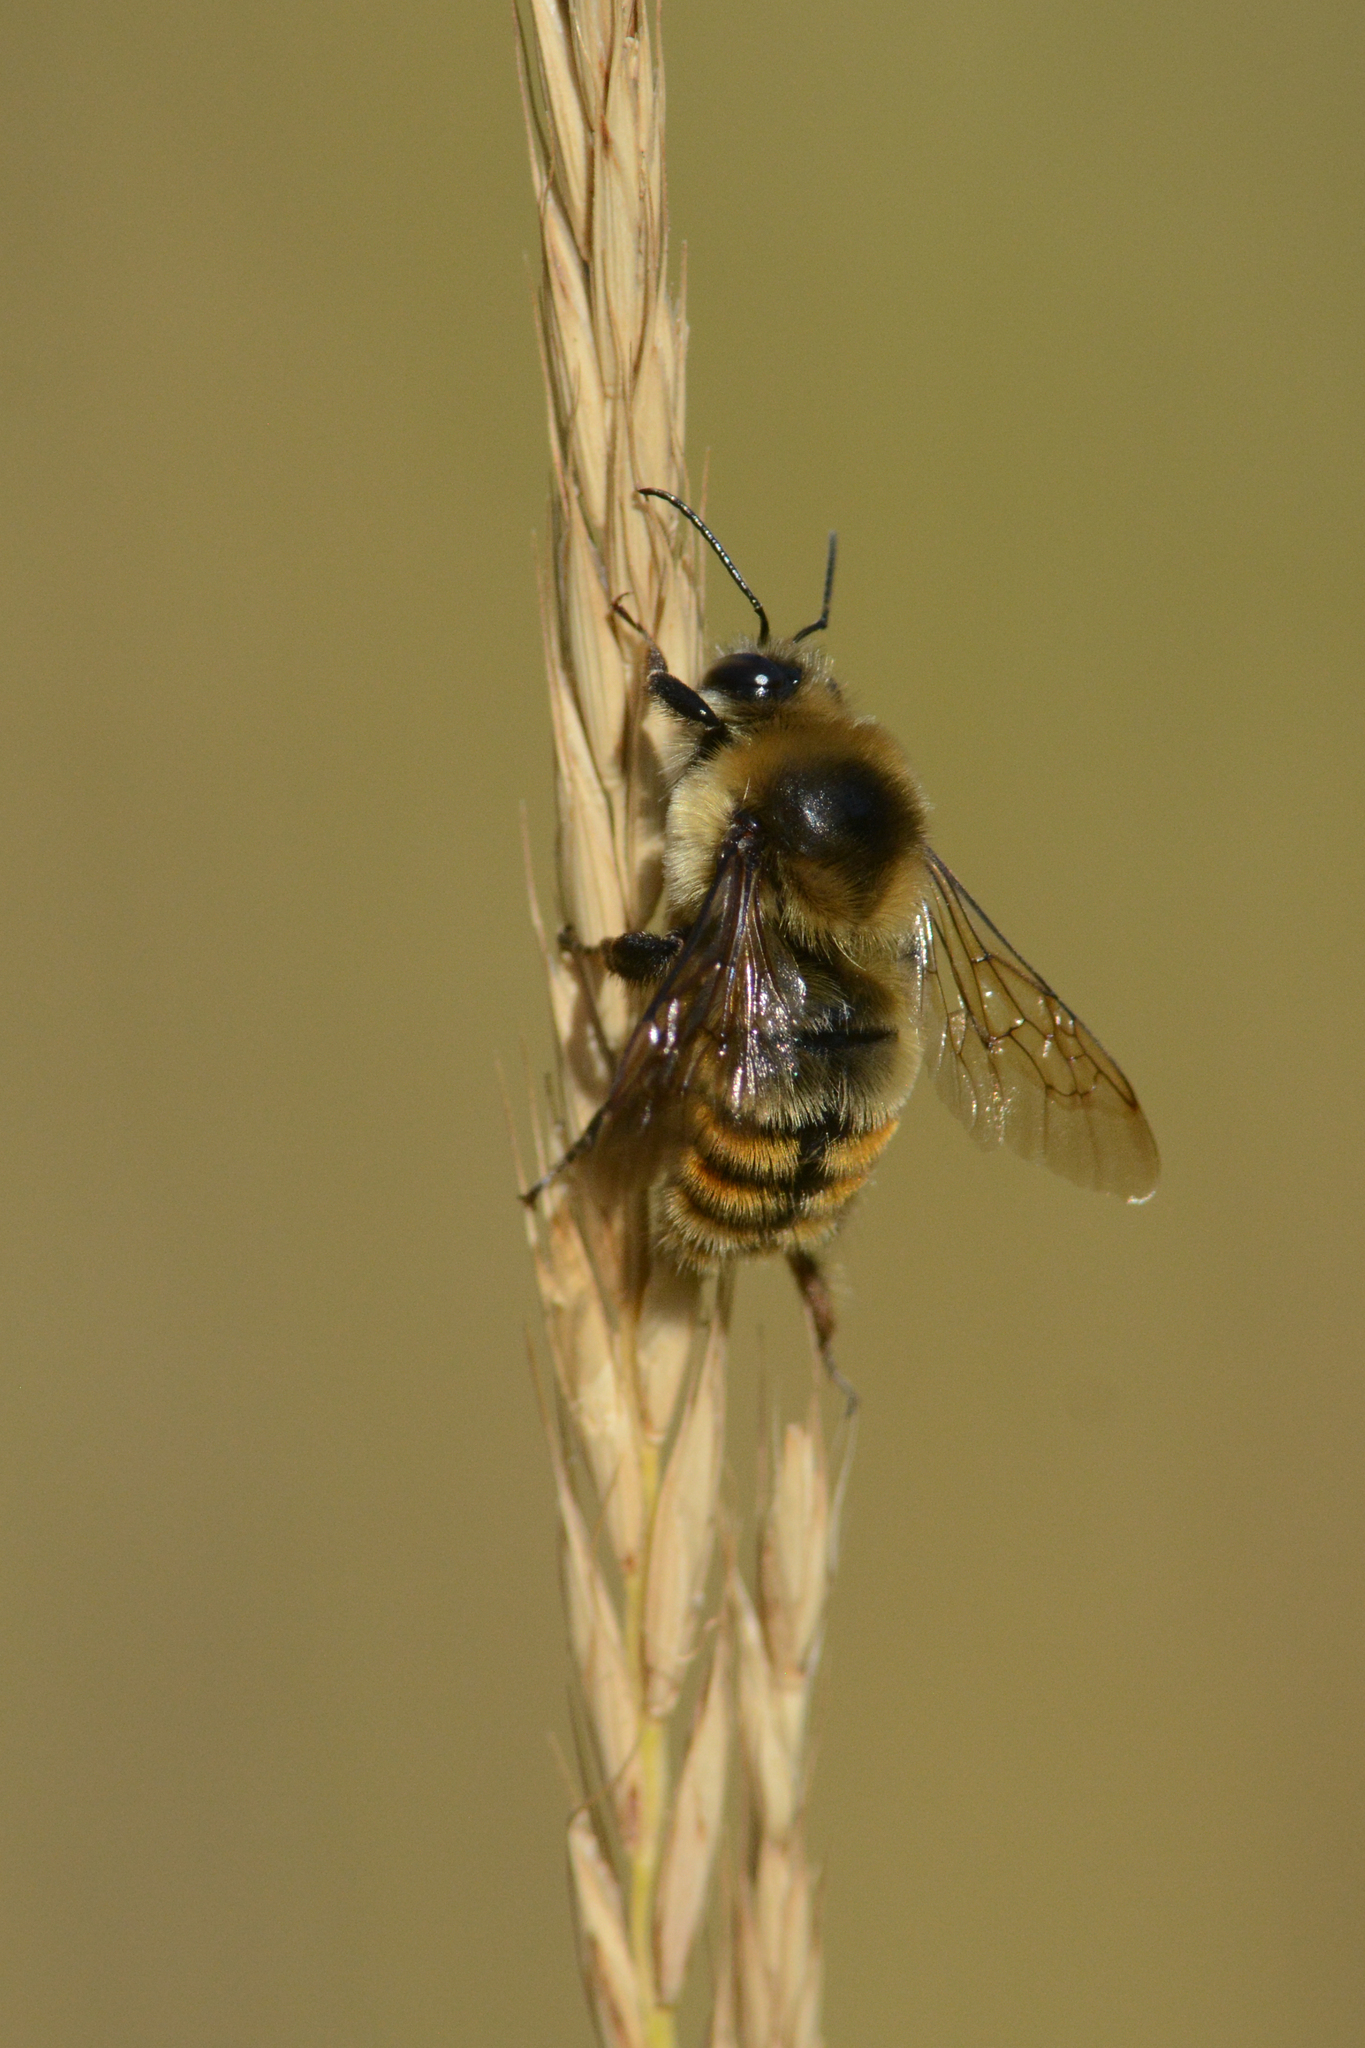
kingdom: Animalia
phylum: Arthropoda
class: Insecta
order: Hymenoptera
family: Apidae
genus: Bombus
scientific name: Bombus rufocinctus
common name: Red-belted bumble bee
